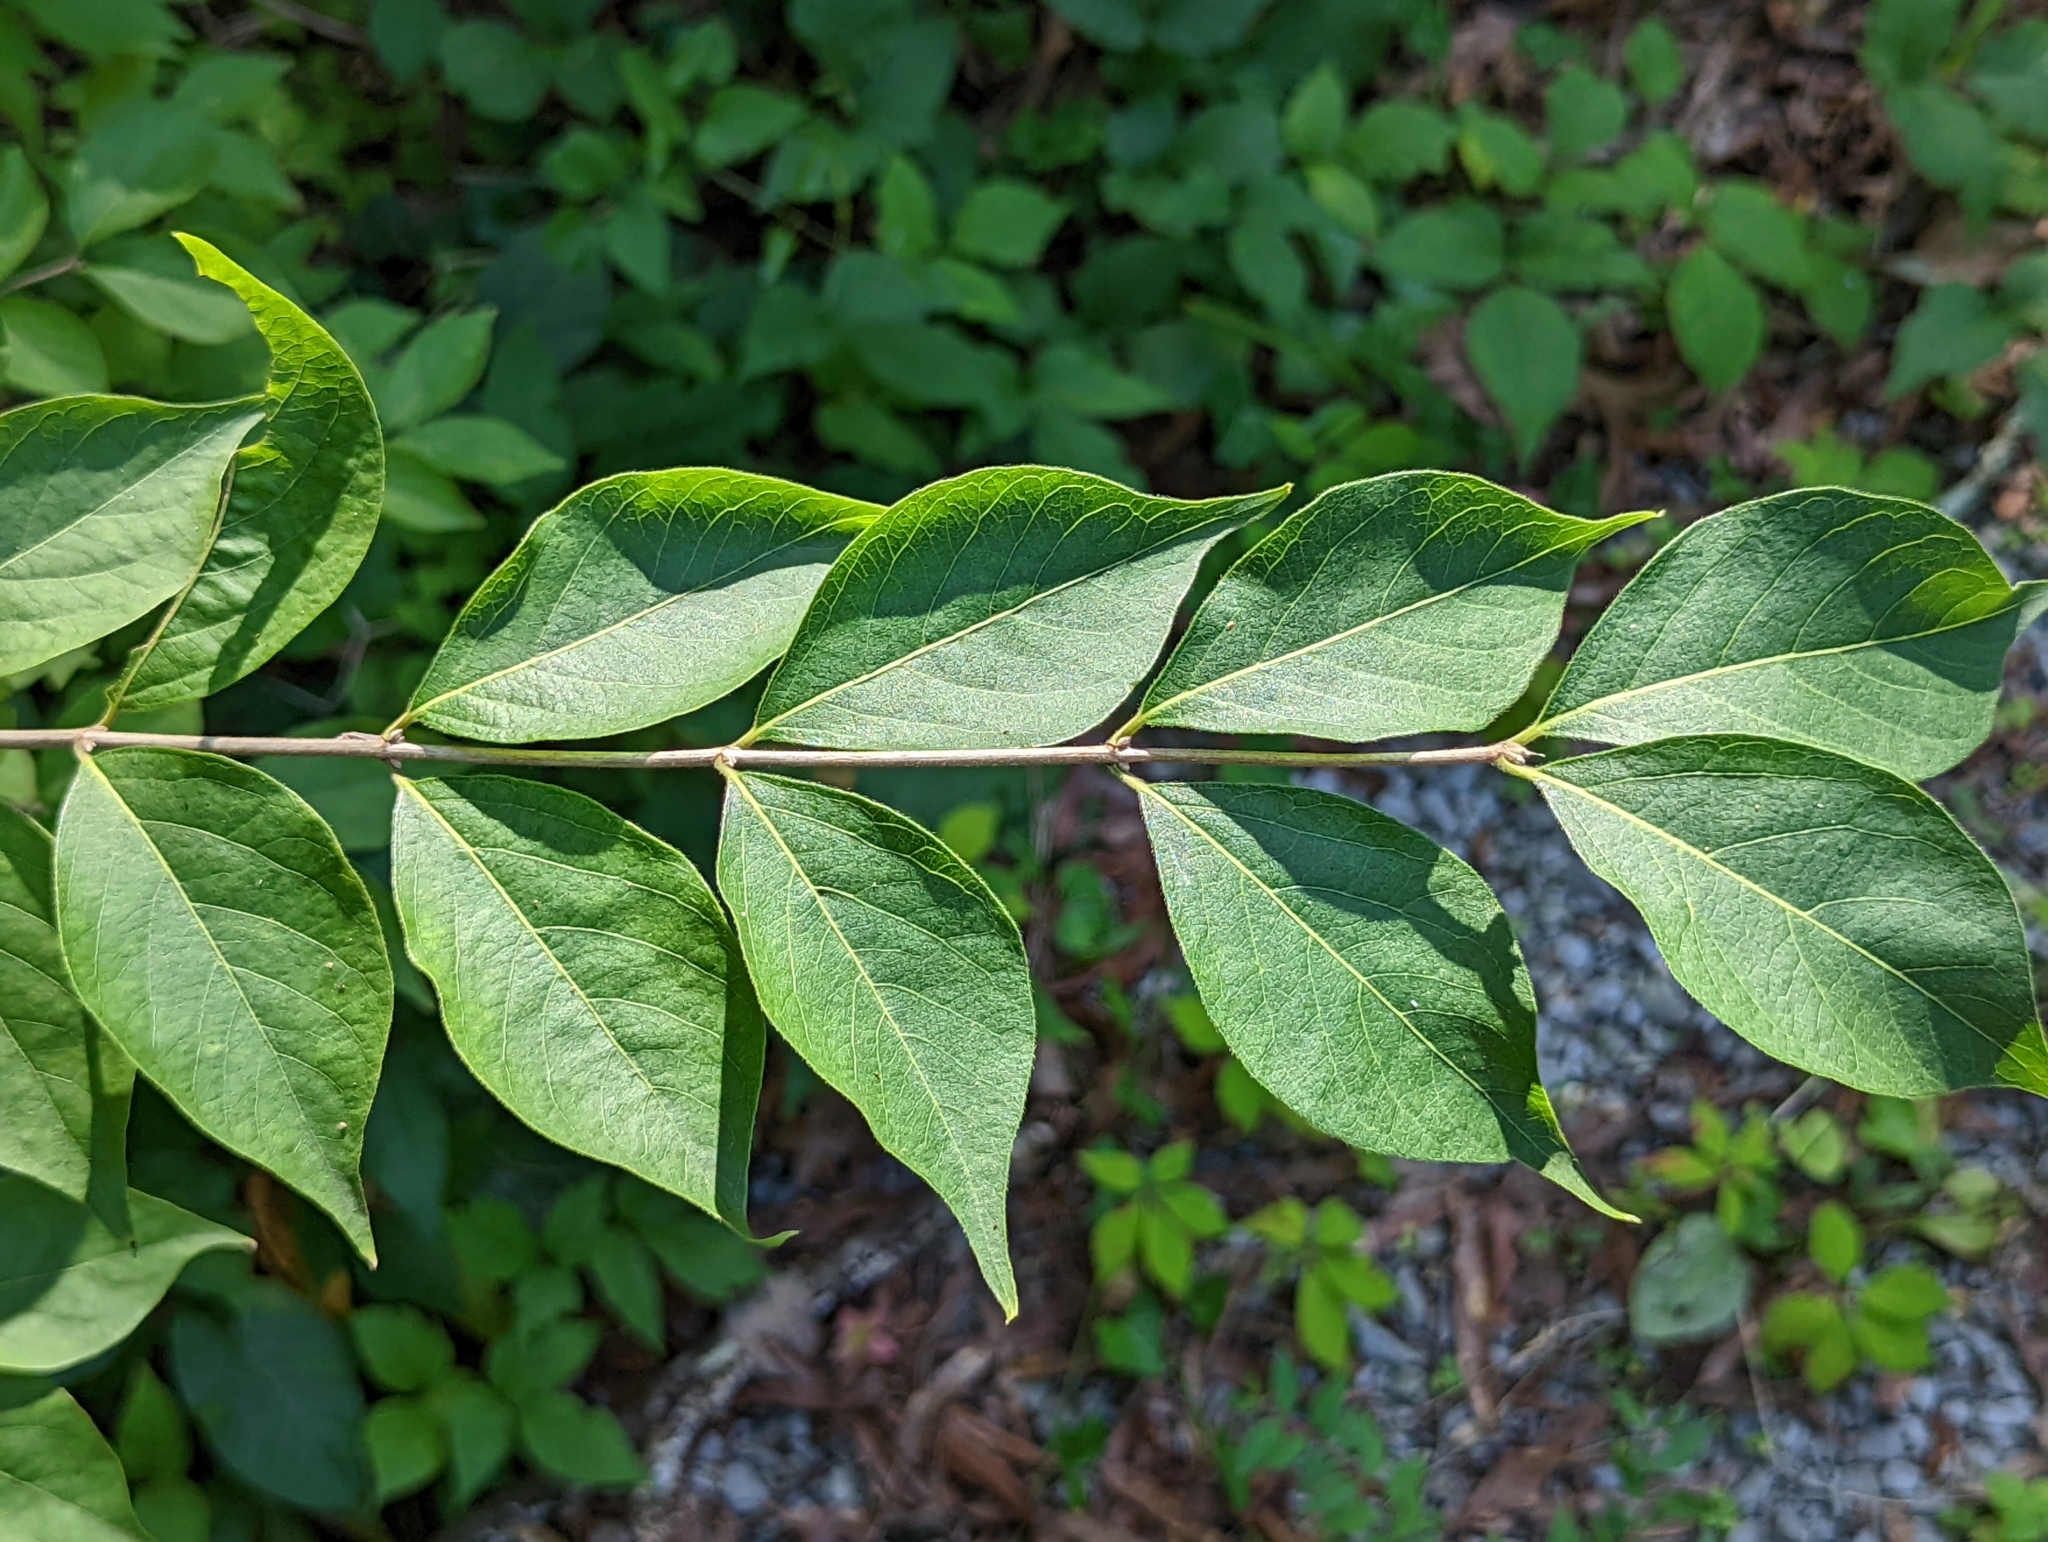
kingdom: Plantae
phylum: Tracheophyta
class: Magnoliopsida
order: Dipsacales
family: Caprifoliaceae
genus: Lonicera
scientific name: Lonicera maackii
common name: Amur honeysuckle
